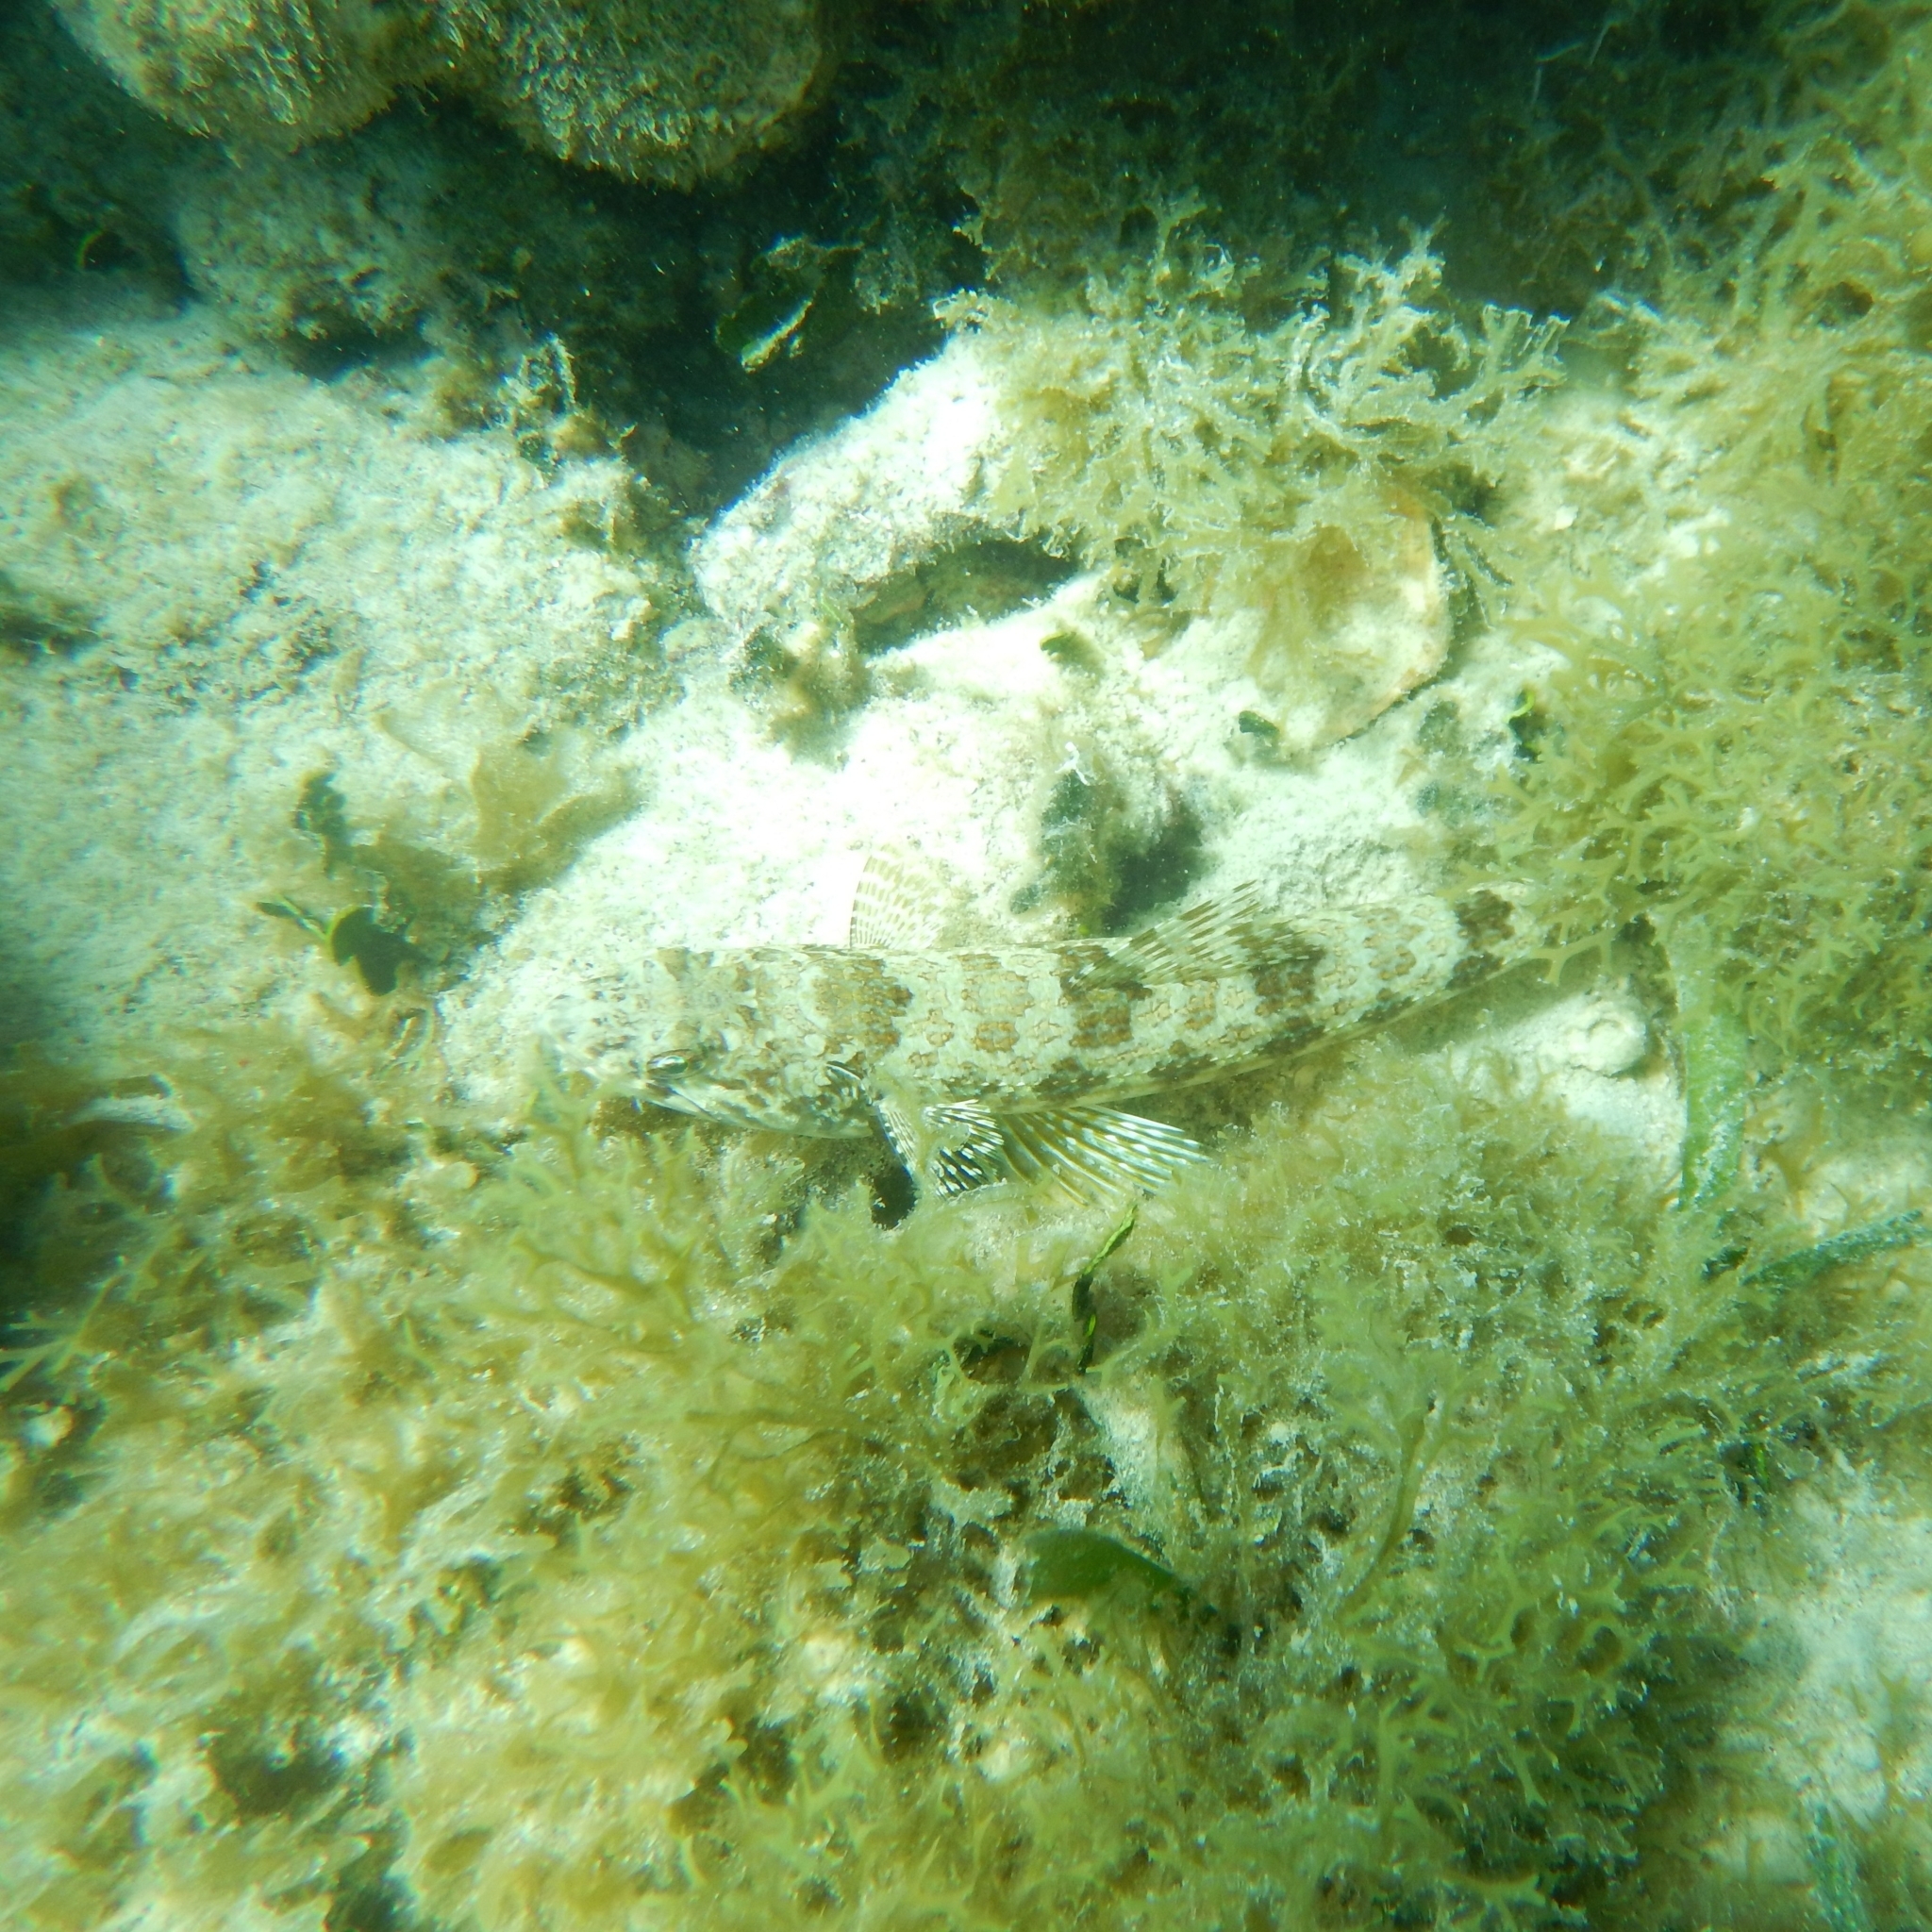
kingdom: Animalia
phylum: Chordata
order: Aulopiformes
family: Synodontidae
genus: Synodus
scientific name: Synodus intermedius
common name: Sand diver
